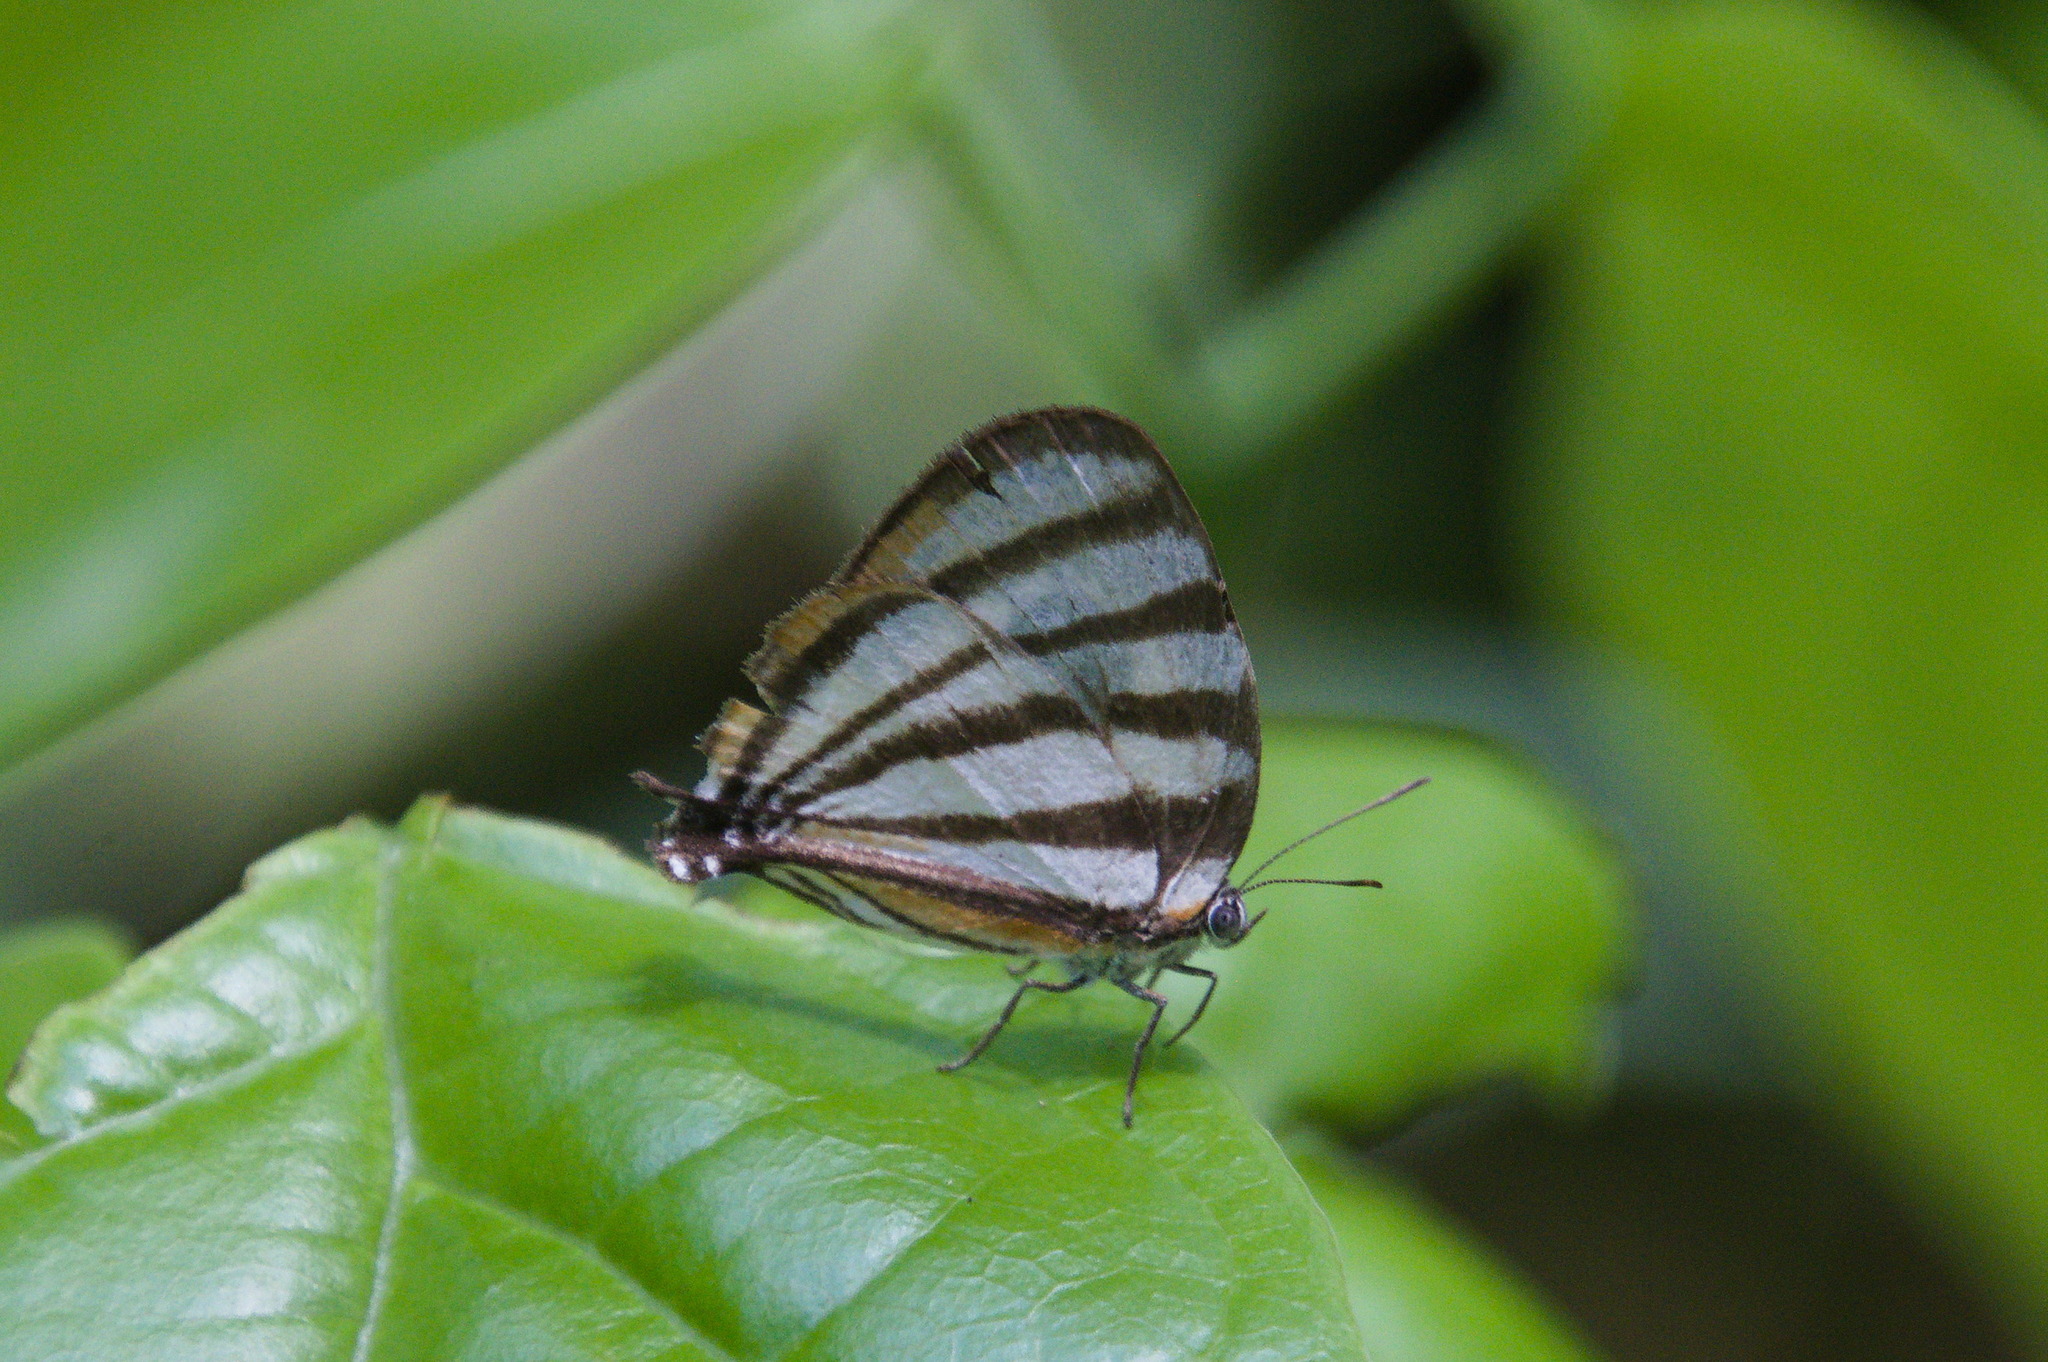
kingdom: Animalia
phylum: Arthropoda
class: Insecta
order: Lepidoptera
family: Lycaenidae
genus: Arawacus
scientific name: Arawacus separata
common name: Separated stripestreak
